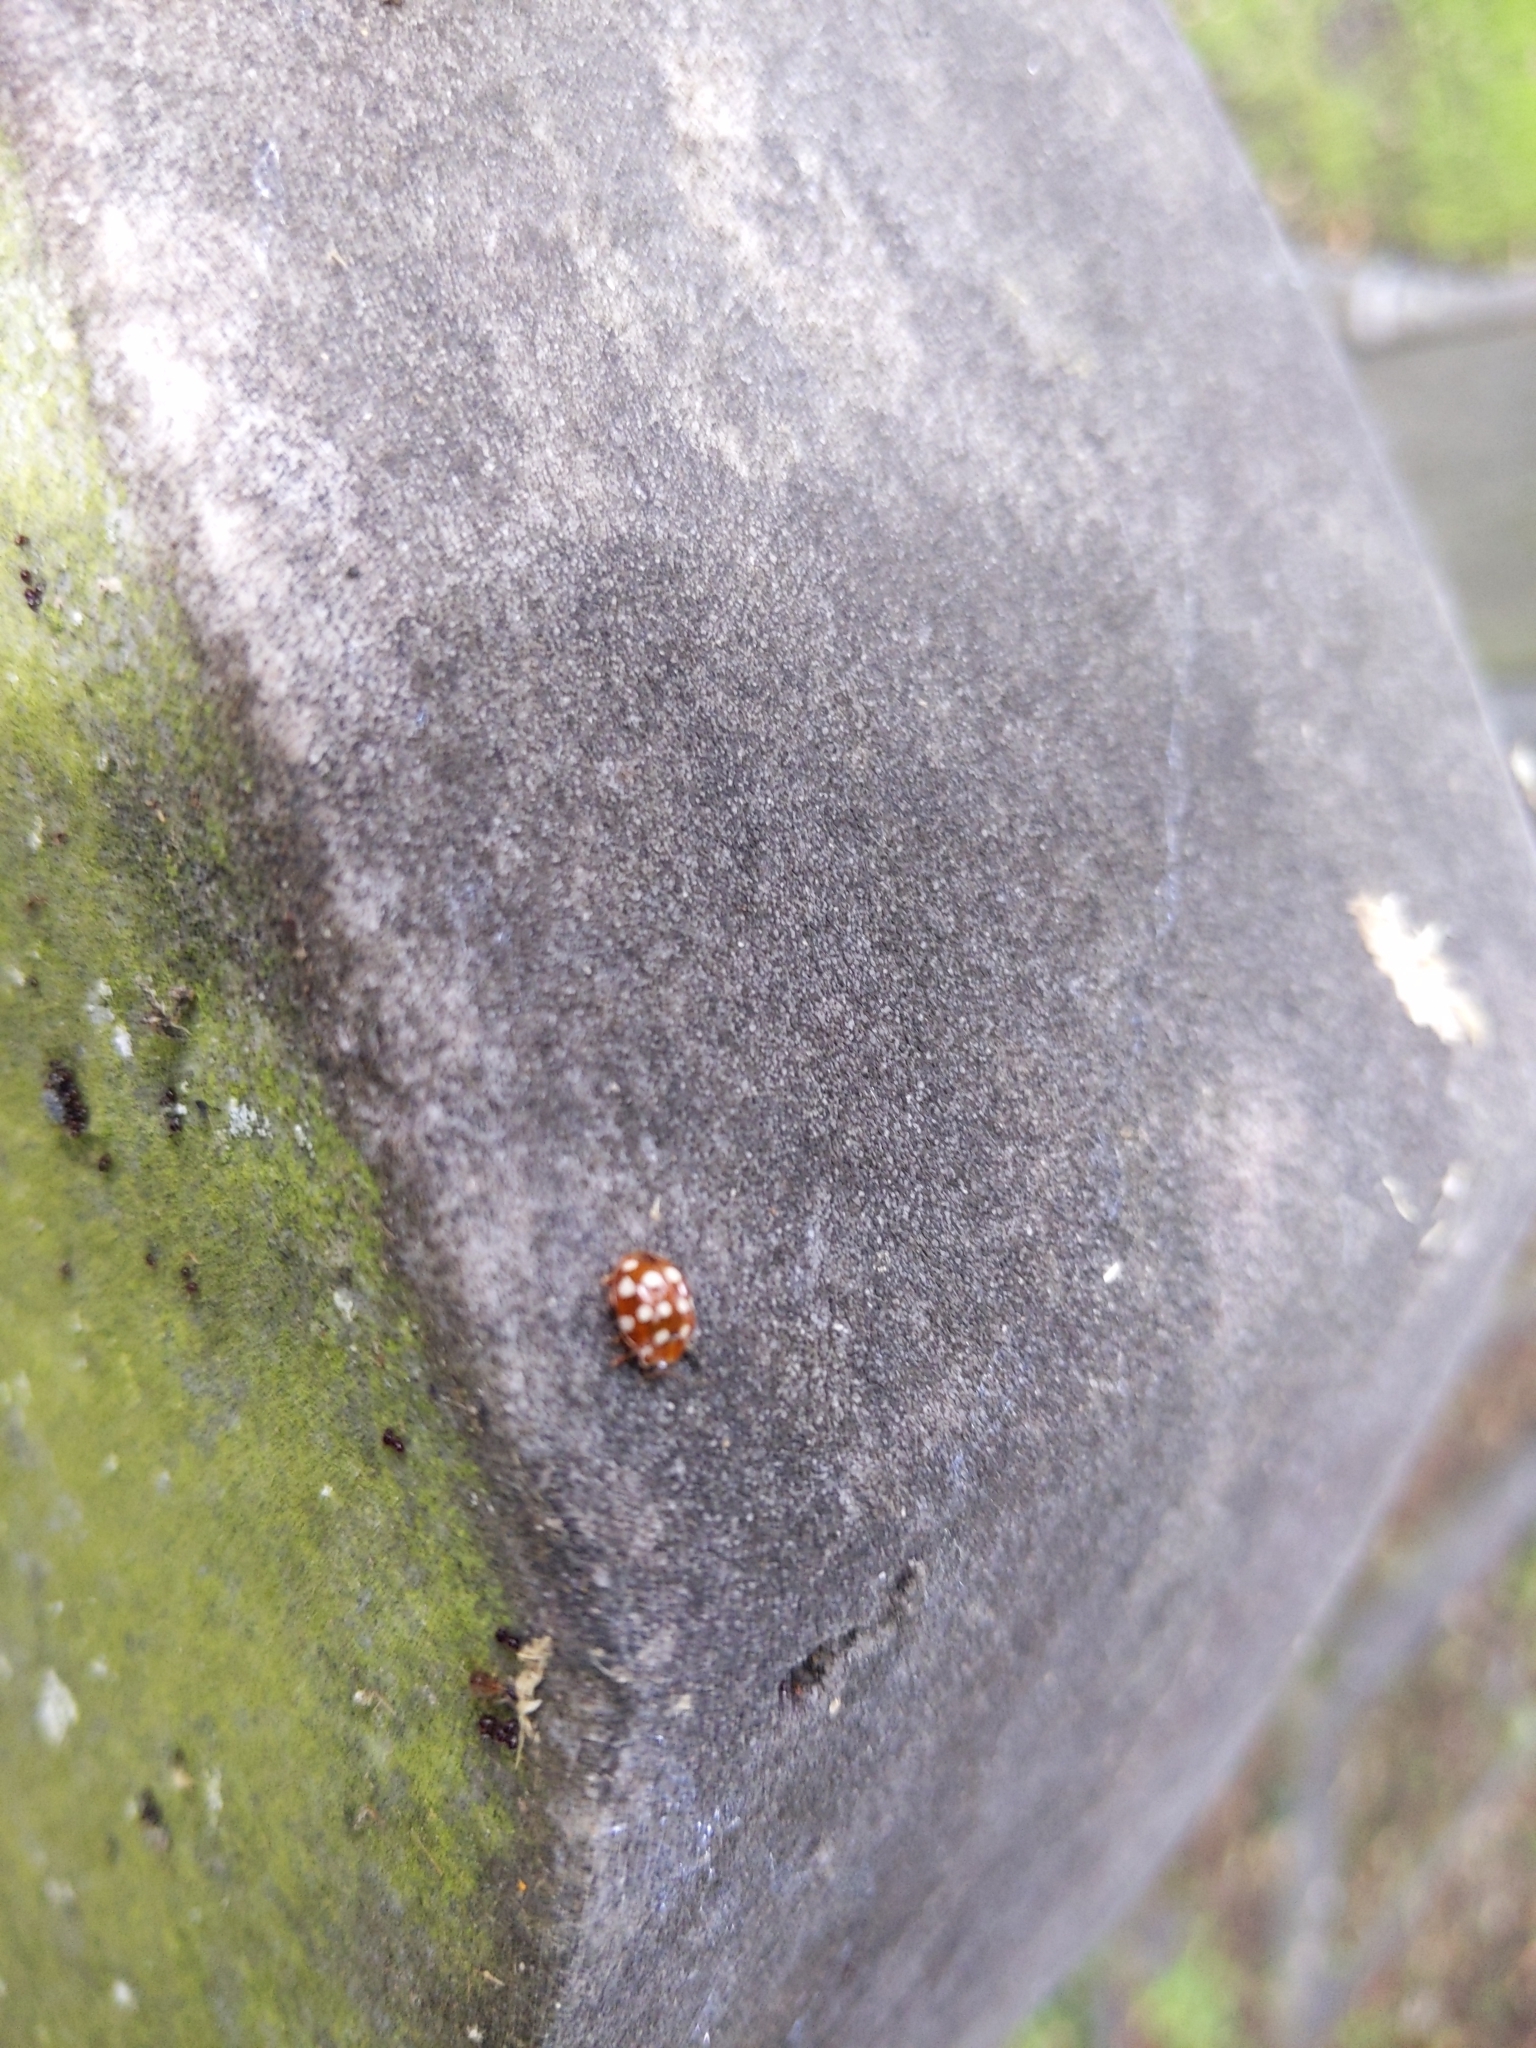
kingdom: Animalia
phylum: Arthropoda
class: Insecta
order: Coleoptera
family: Coccinellidae
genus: Calvia
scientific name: Calvia quatuordecimguttata
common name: Cream-spot ladybird
